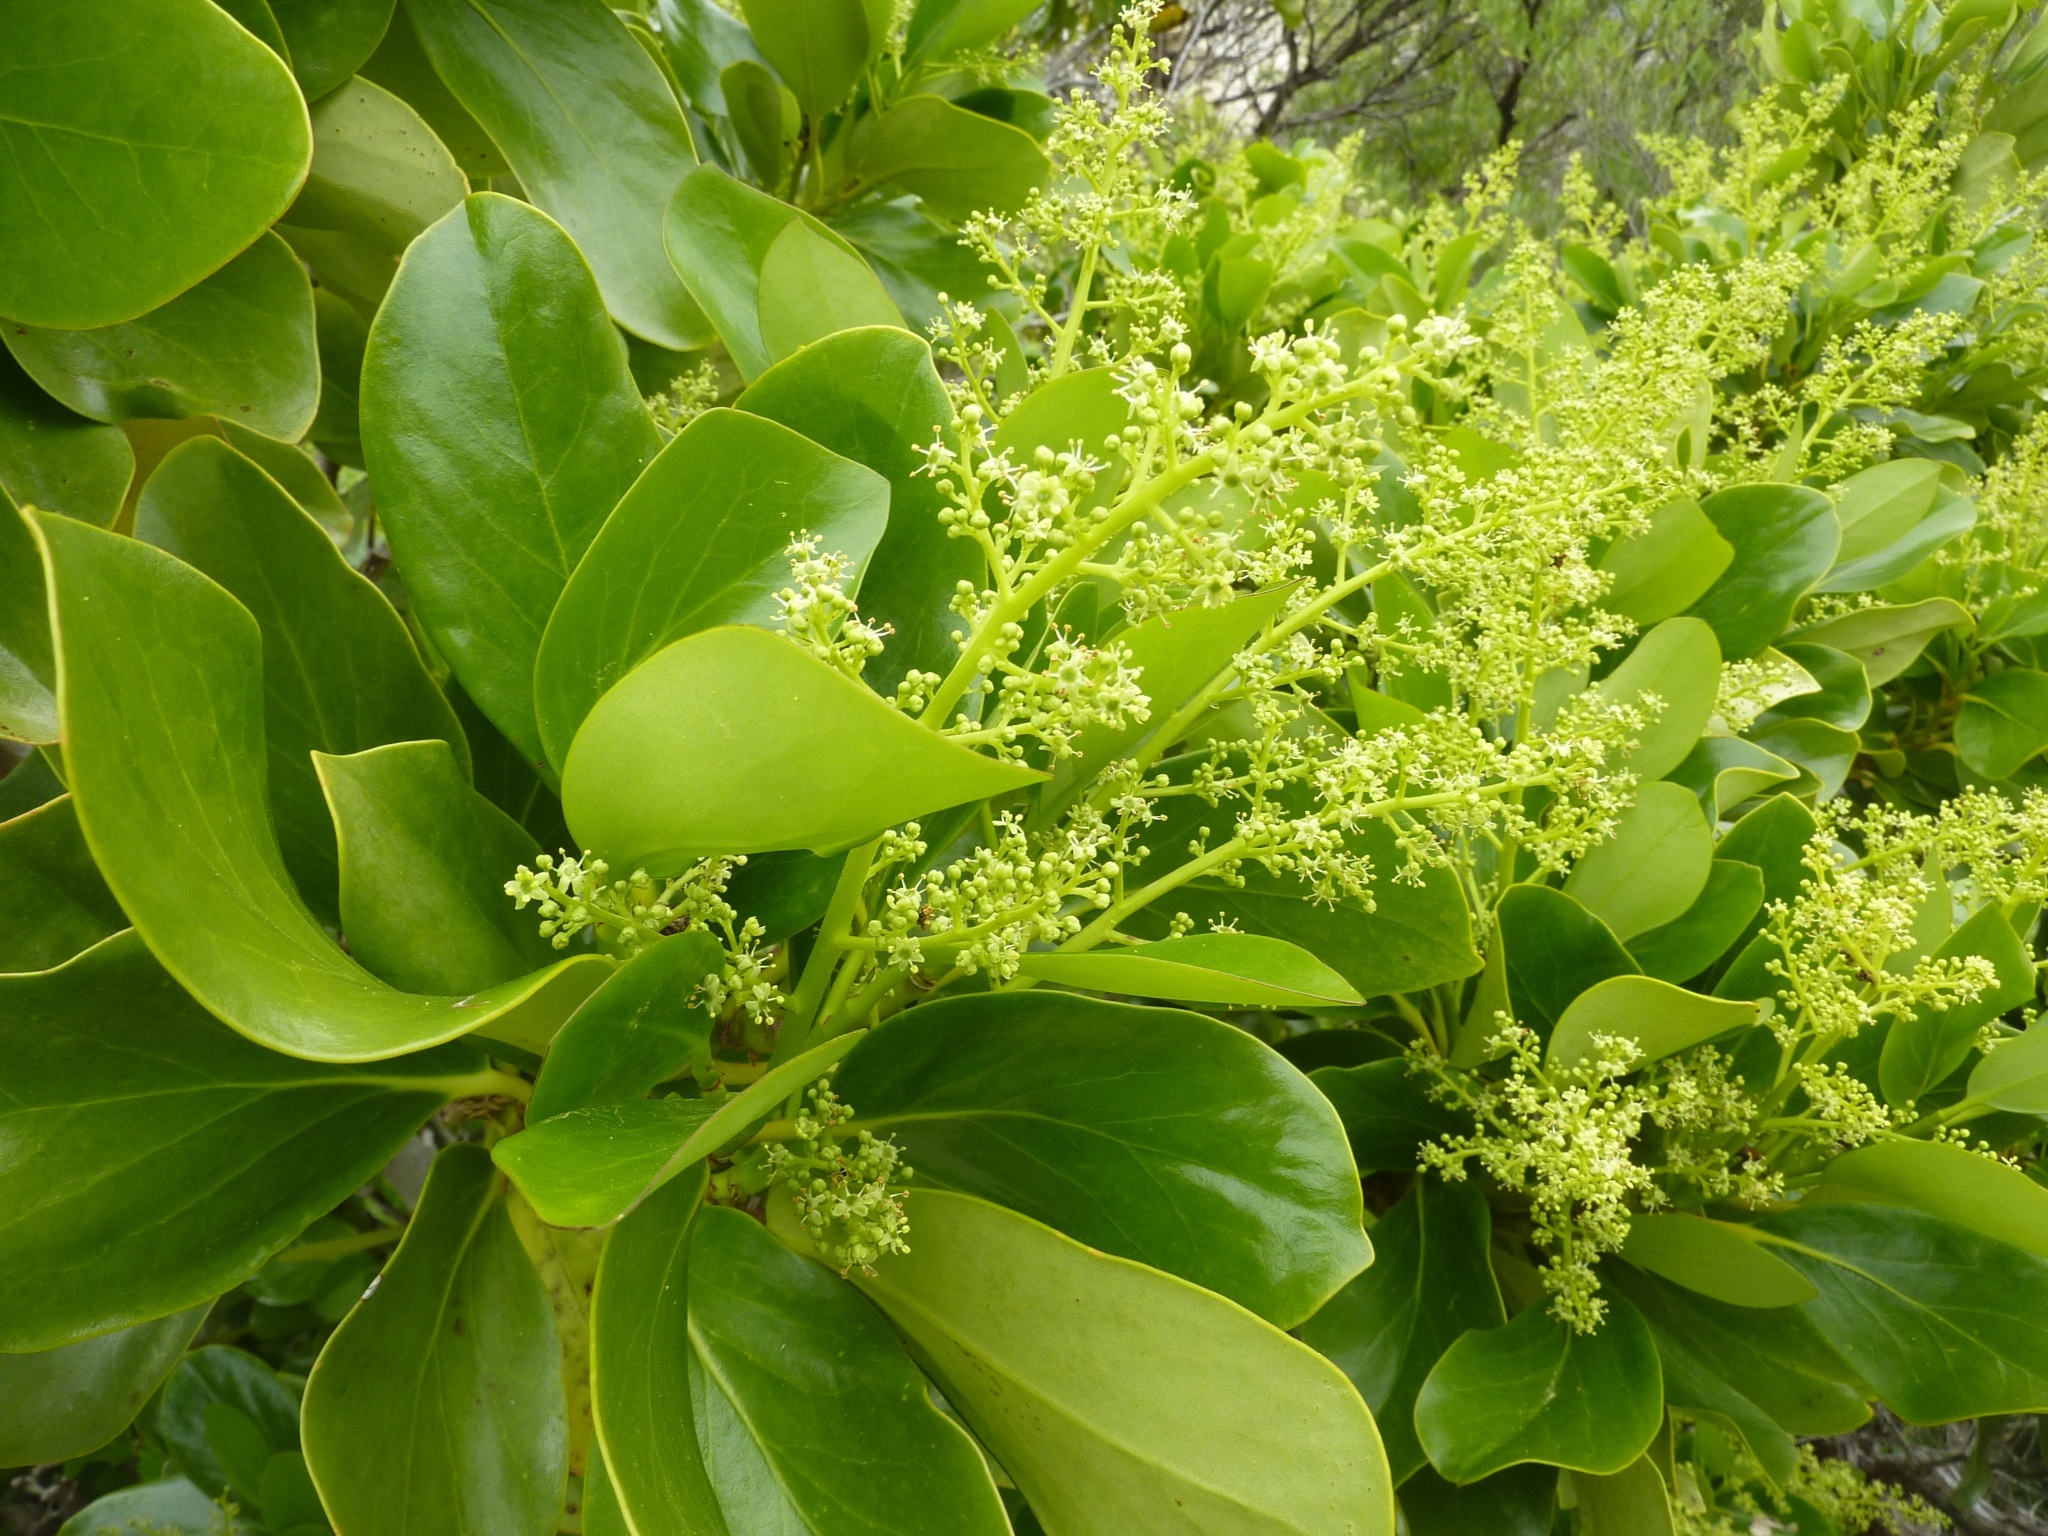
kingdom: Plantae
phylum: Tracheophyta
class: Magnoliopsida
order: Apiales
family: Griseliniaceae
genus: Griselinia
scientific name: Griselinia lucida
